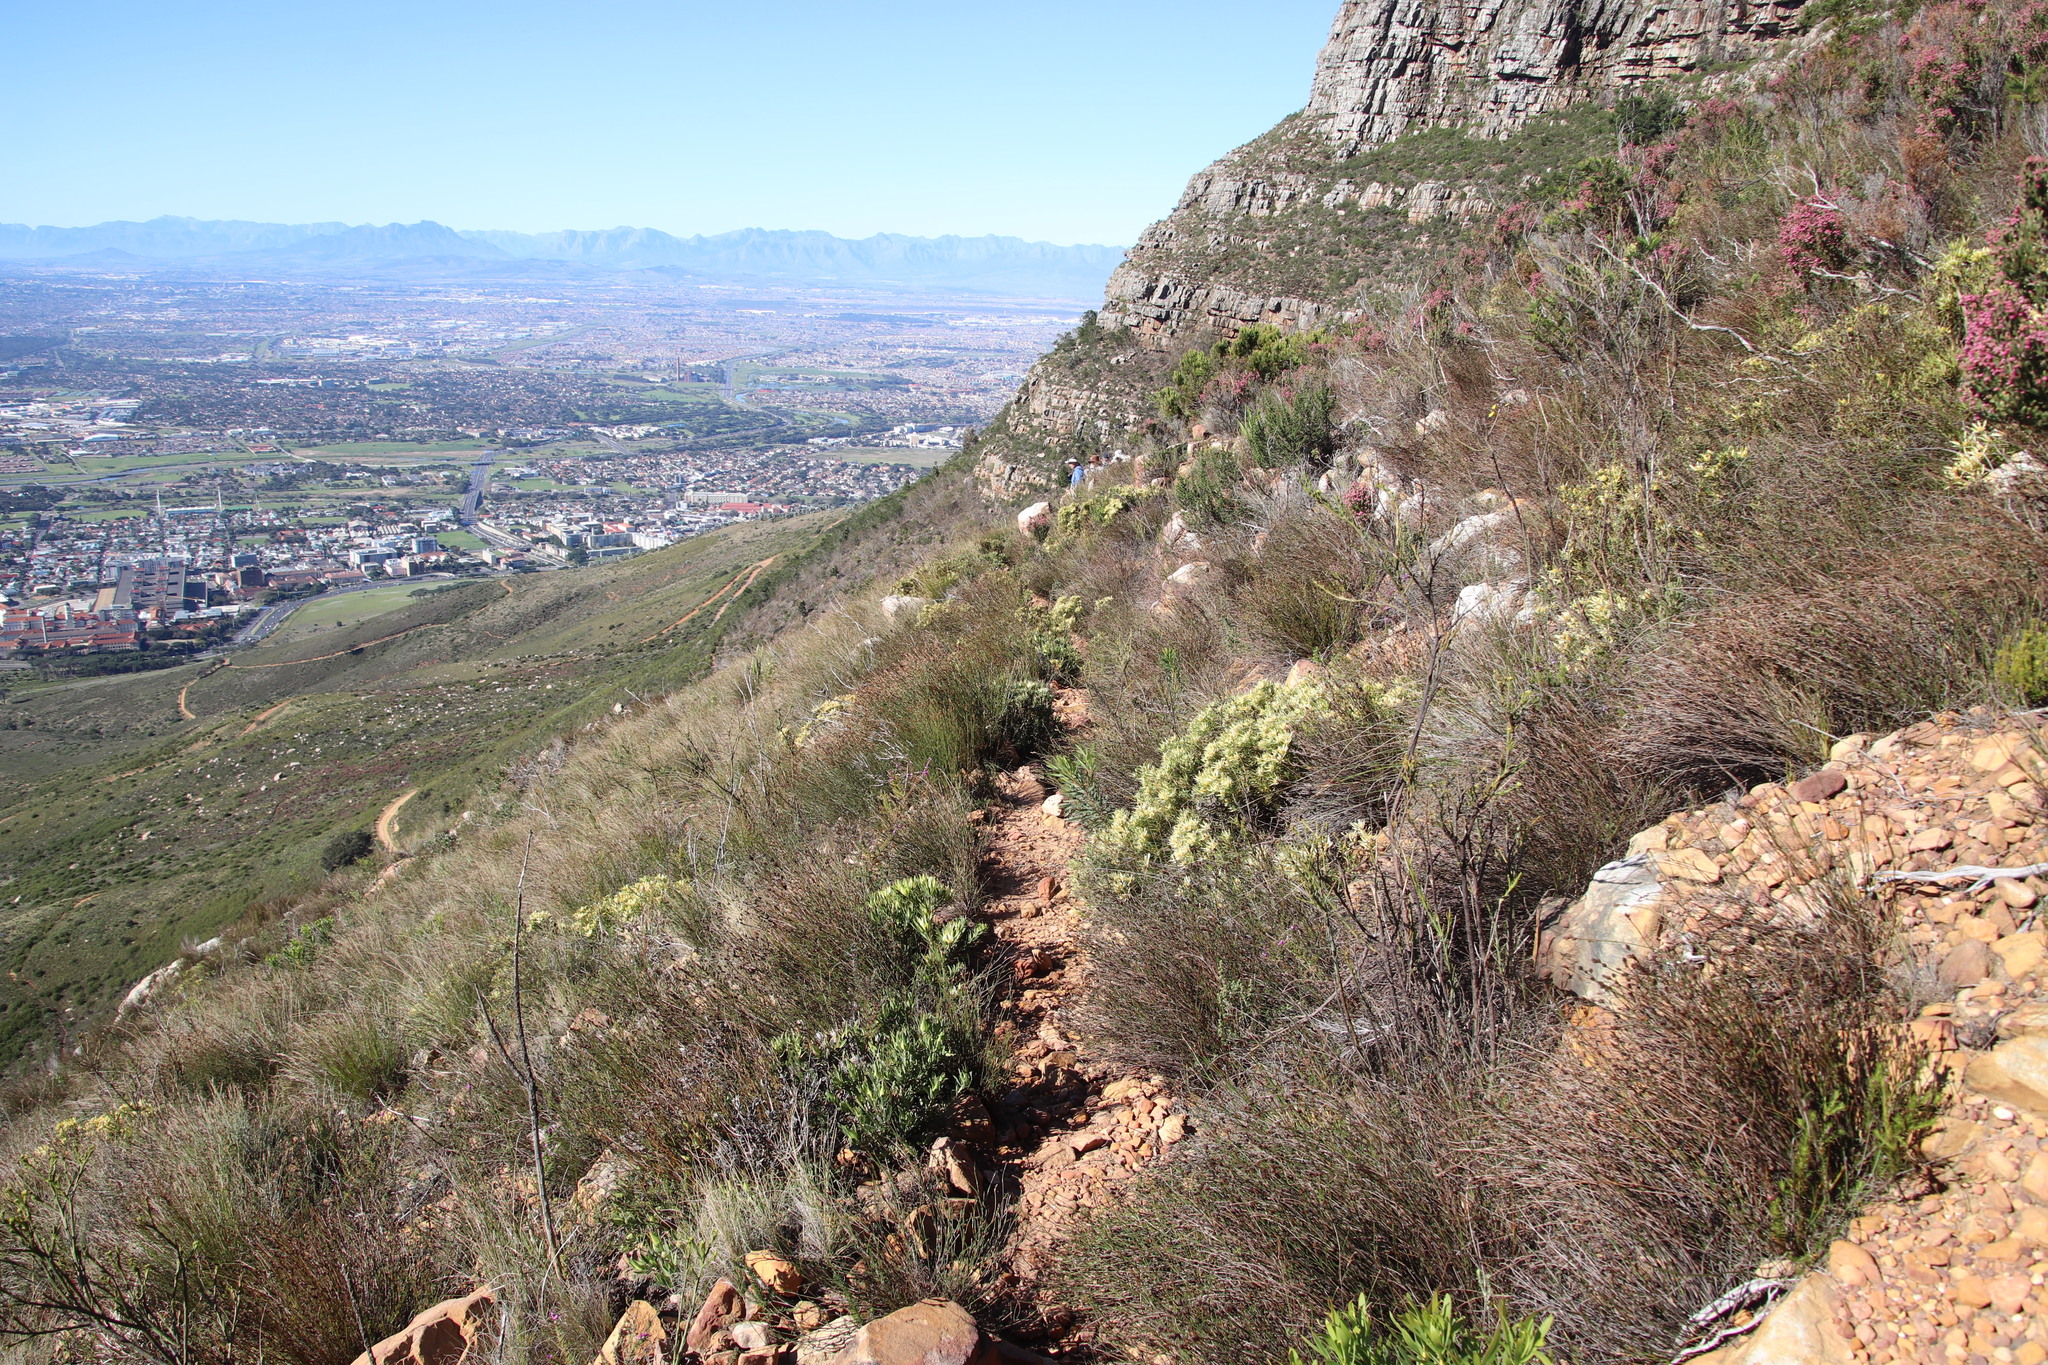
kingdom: Plantae
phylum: Tracheophyta
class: Magnoliopsida
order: Proteales
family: Proteaceae
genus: Leucadendron
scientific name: Leucadendron salignum
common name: Common sunshine conebush
